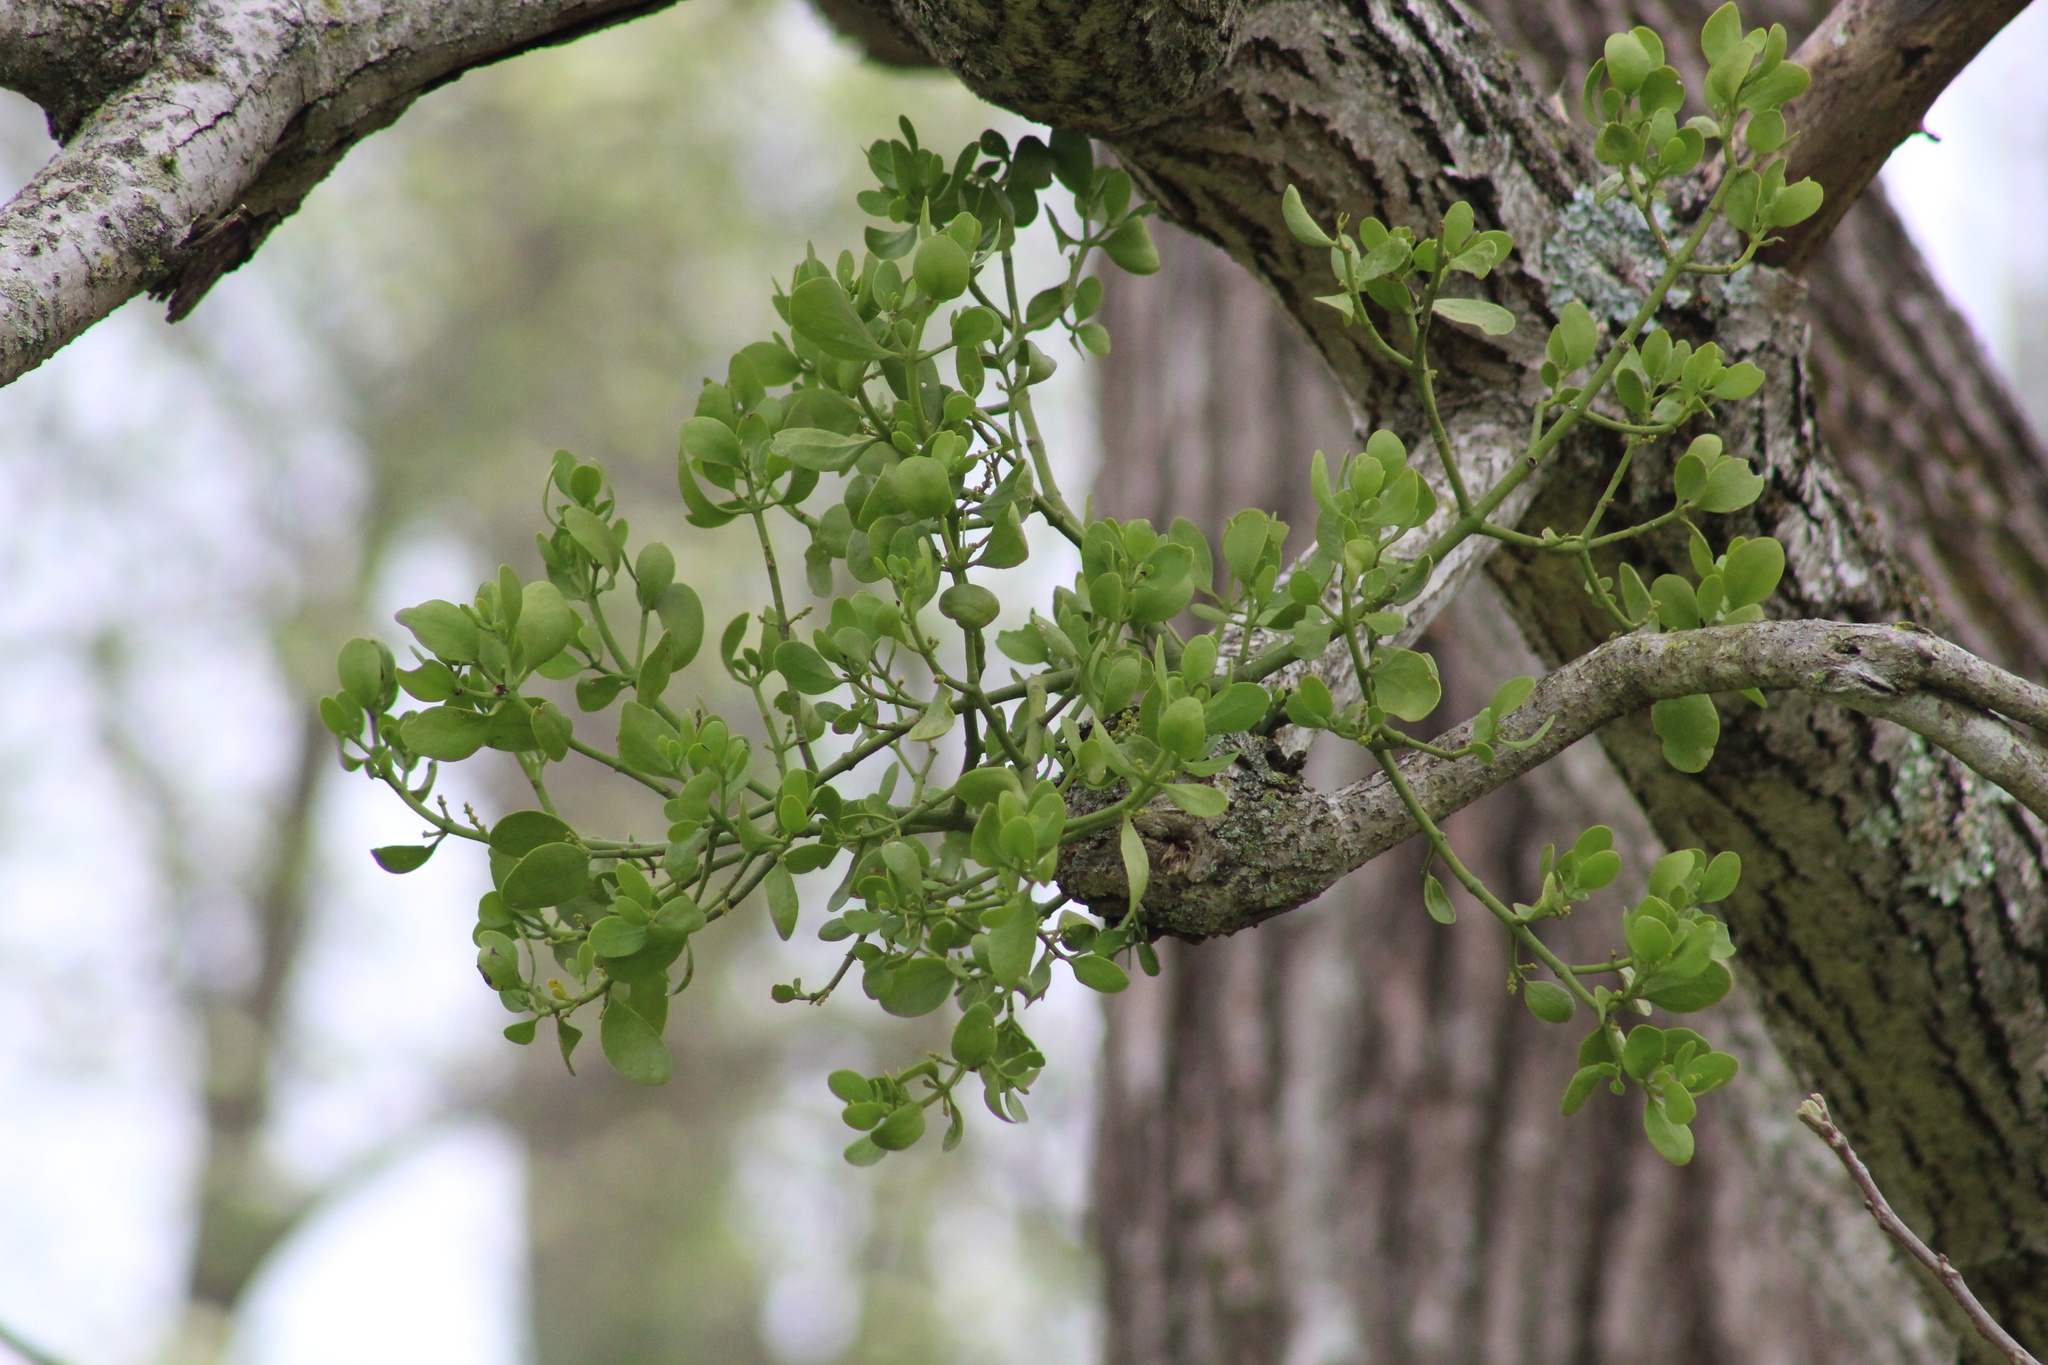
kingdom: Plantae
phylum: Tracheophyta
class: Magnoliopsida
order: Santalales
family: Viscaceae
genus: Phoradendron
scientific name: Phoradendron leucarpum
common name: Pacific mistletoe
